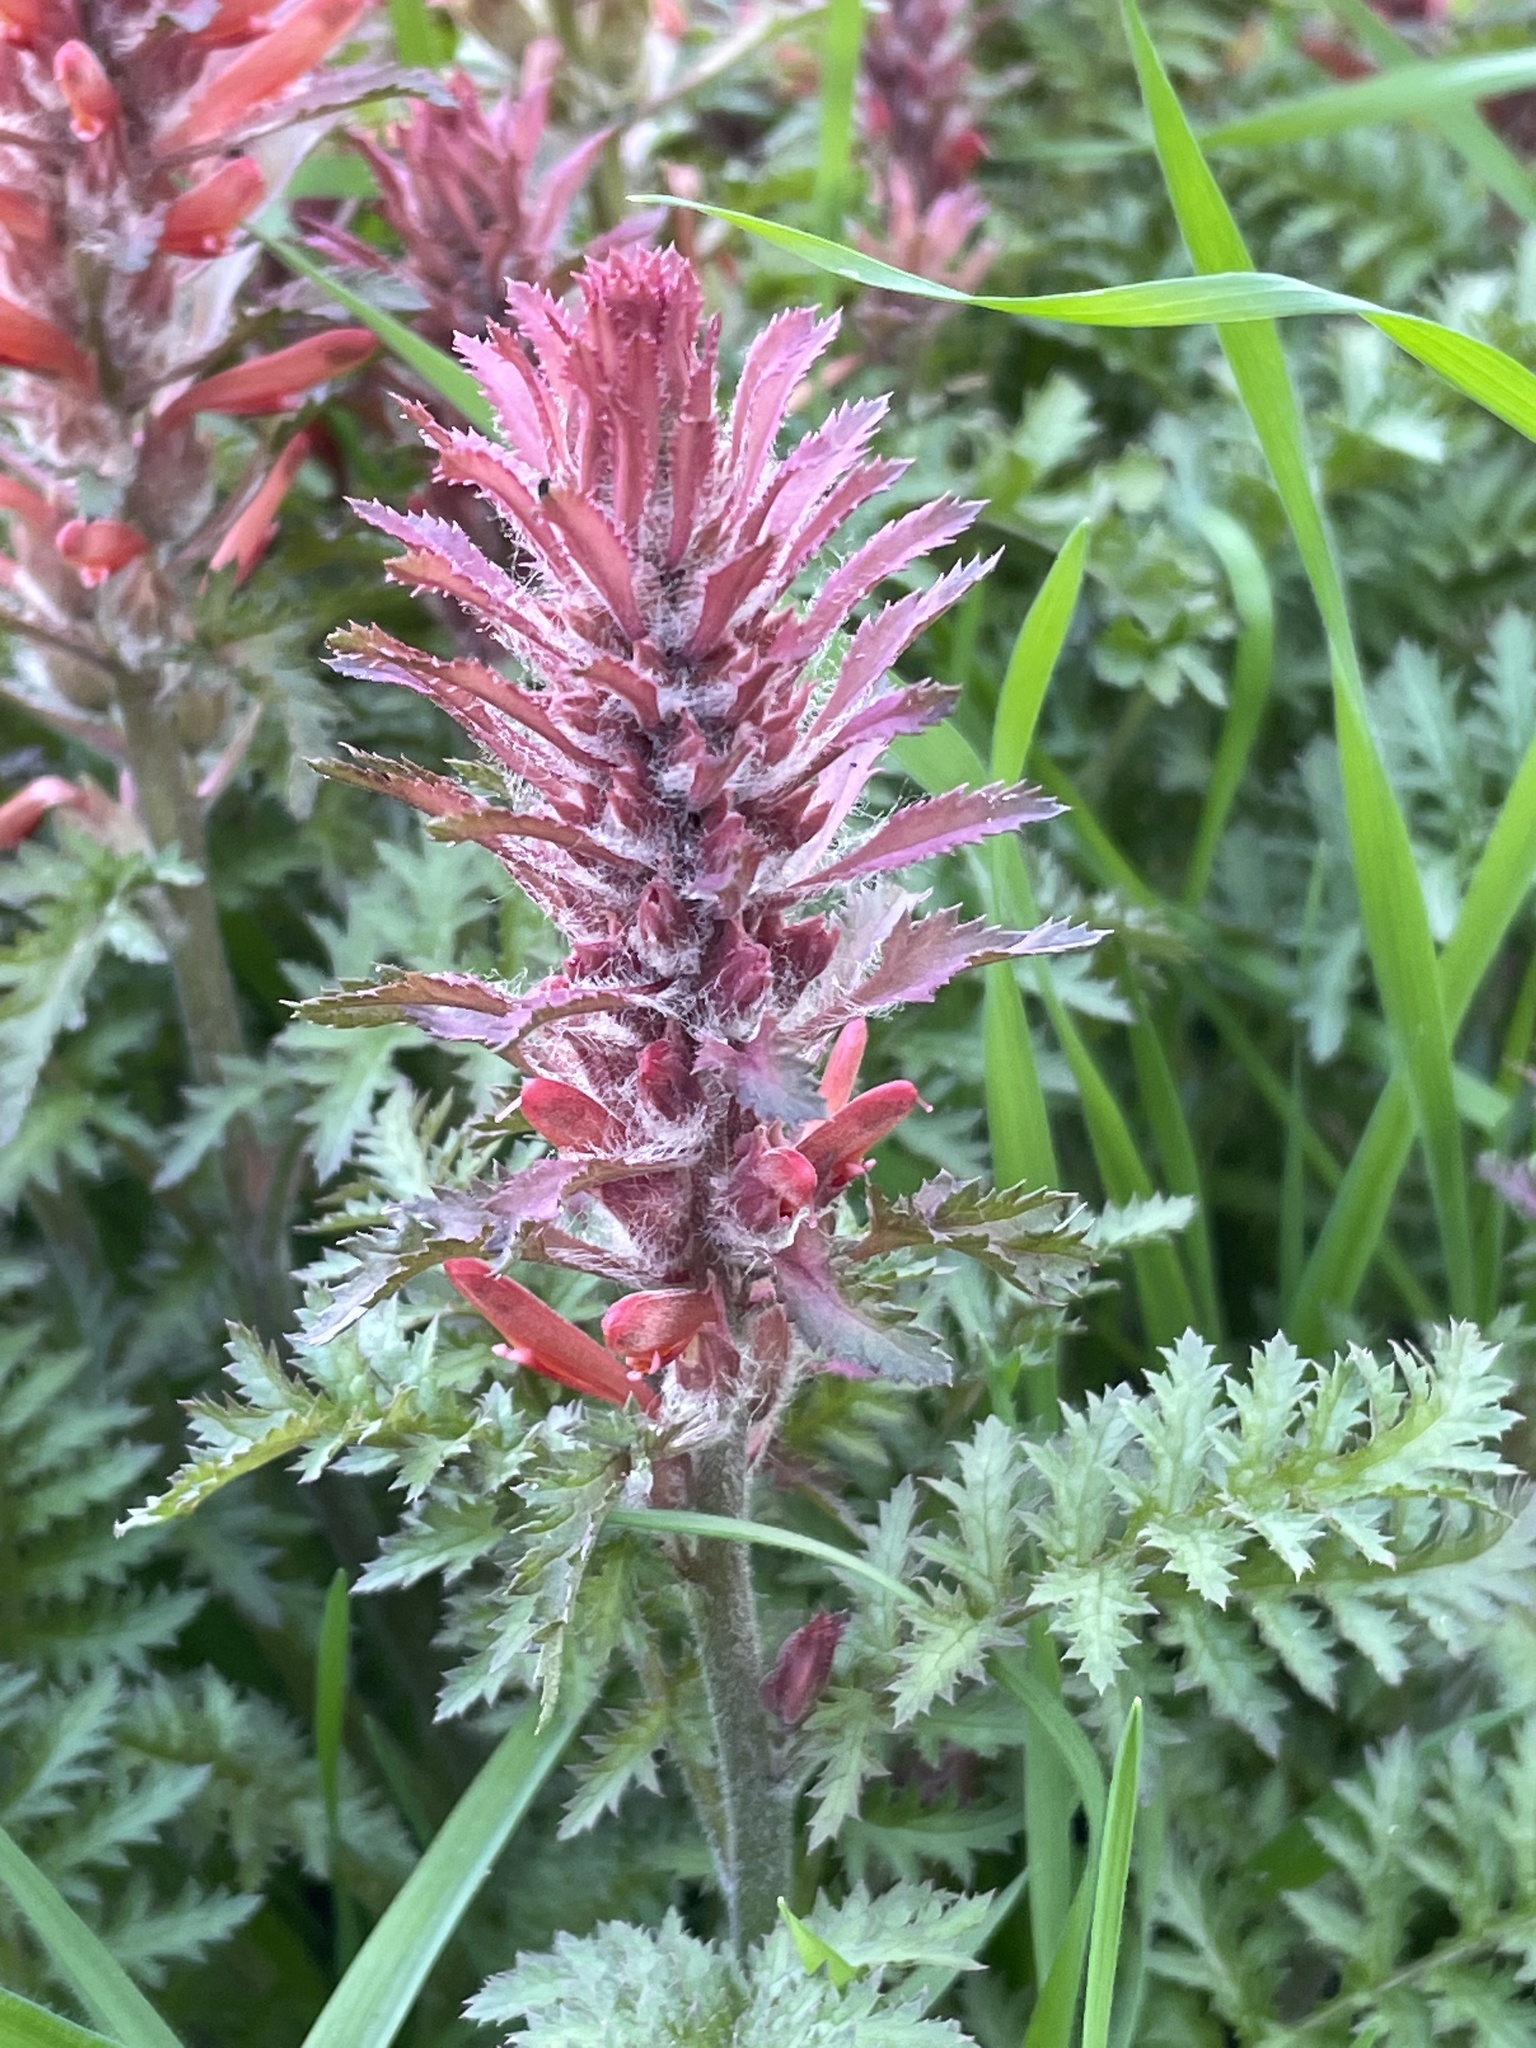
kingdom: Plantae
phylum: Tracheophyta
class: Magnoliopsida
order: Lamiales
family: Orobanchaceae
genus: Pedicularis
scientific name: Pedicularis densiflora
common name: Indian warrior
